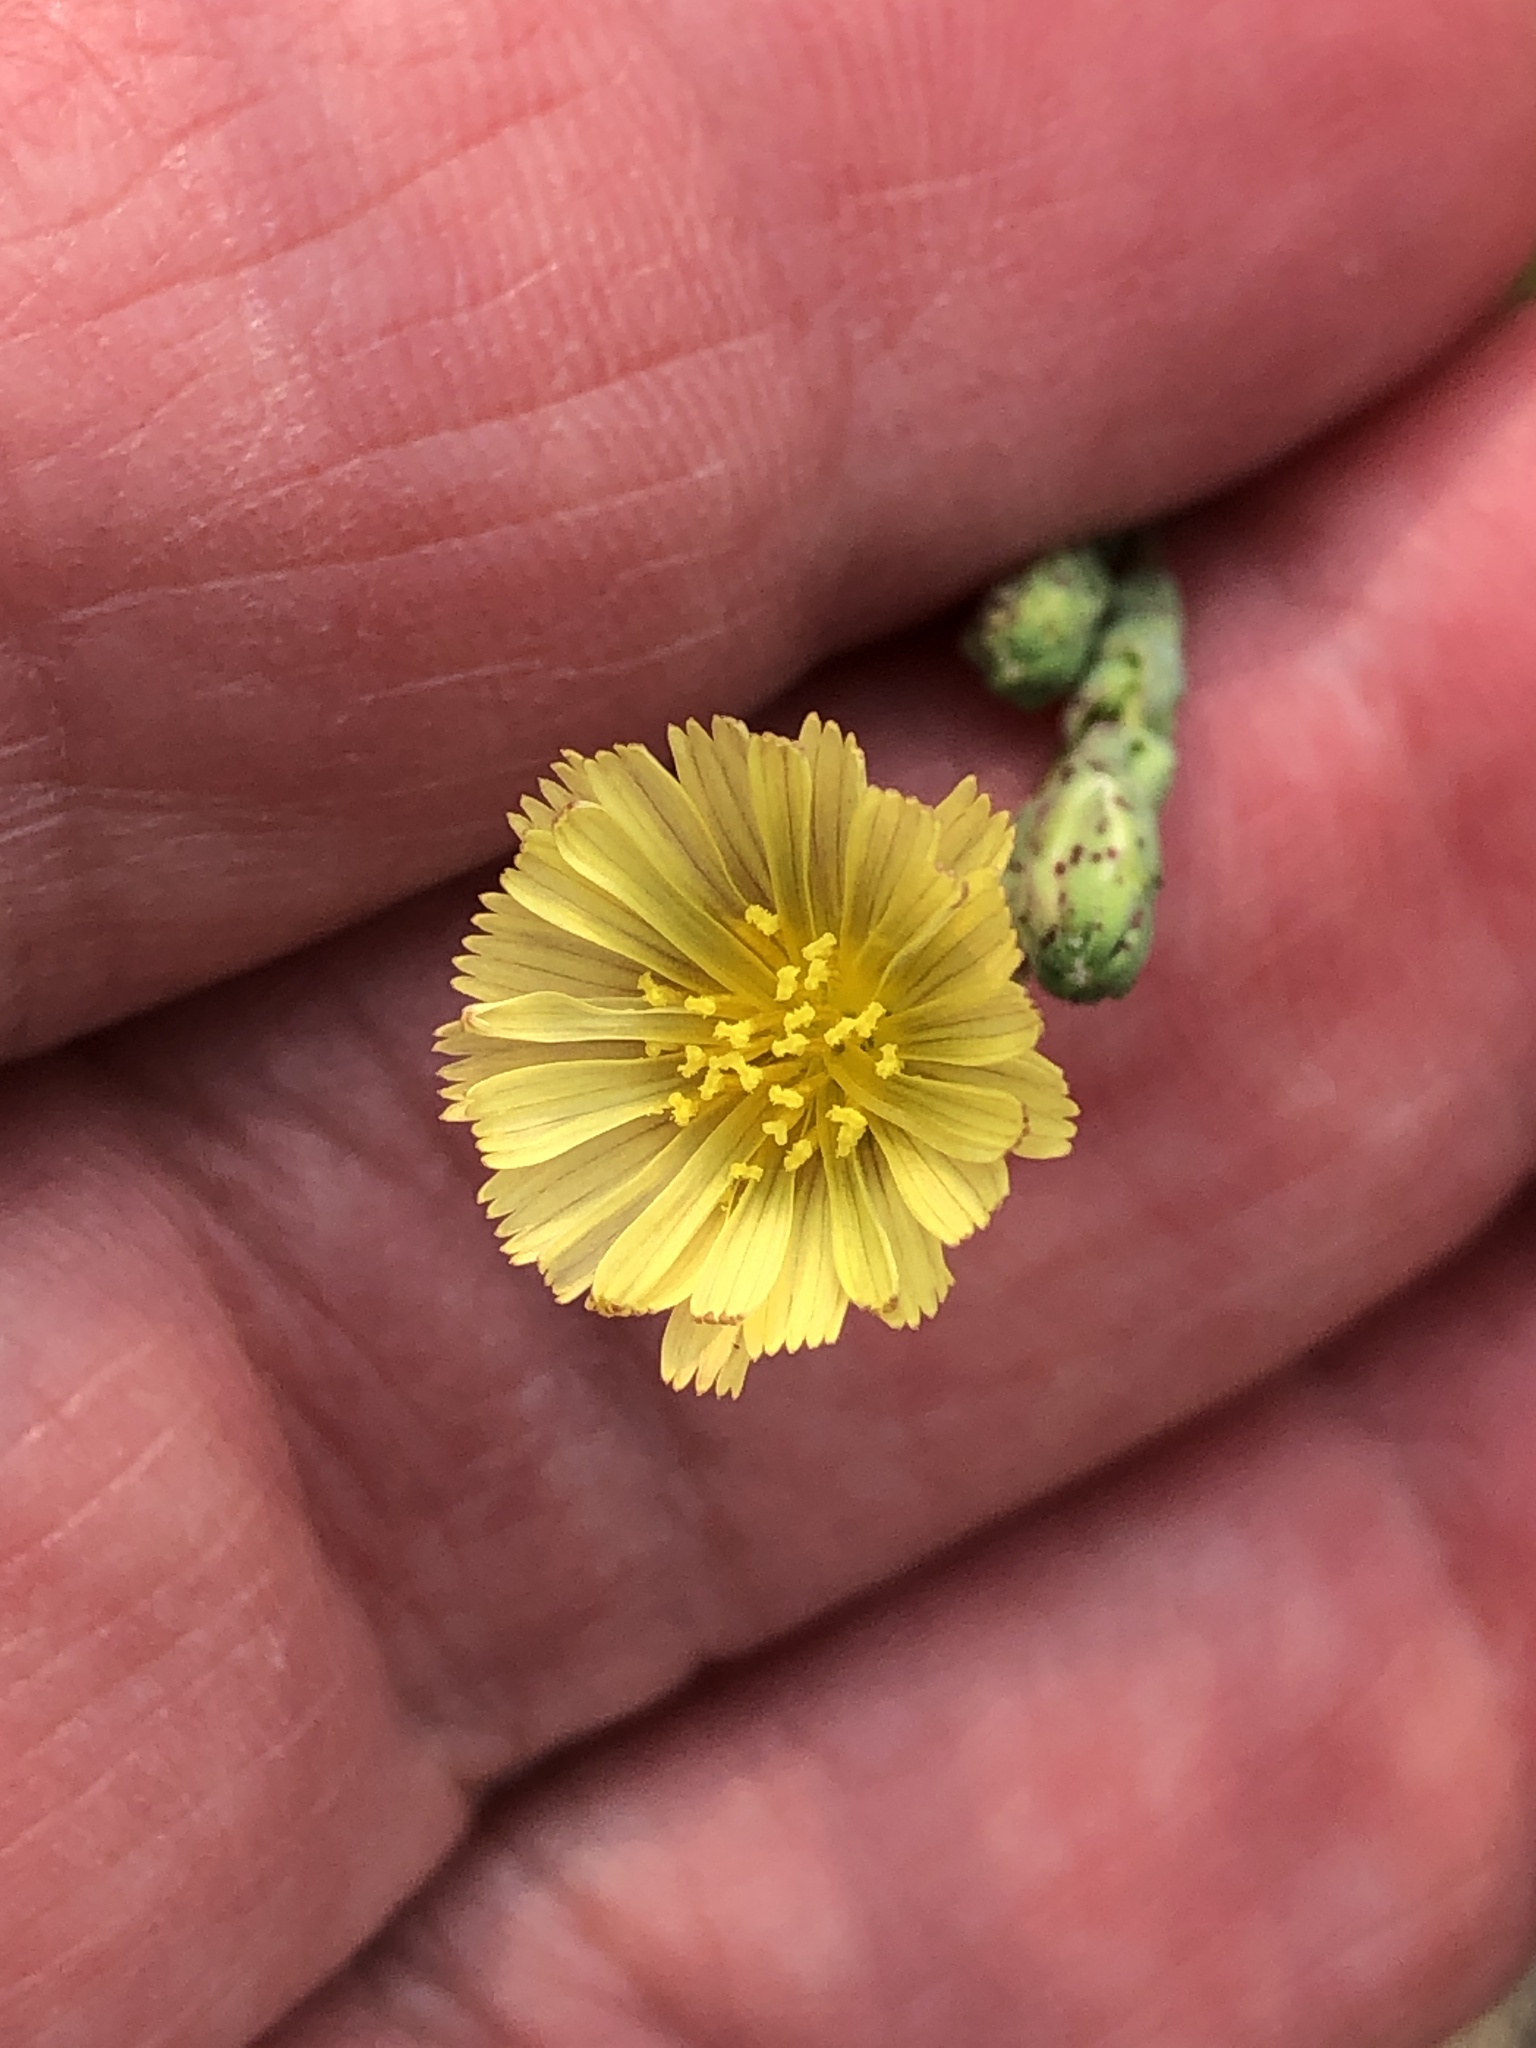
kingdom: Plantae
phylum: Tracheophyta
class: Magnoliopsida
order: Asterales
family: Asteraceae
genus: Lactuca
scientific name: Lactuca serriola
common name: Prickly lettuce
